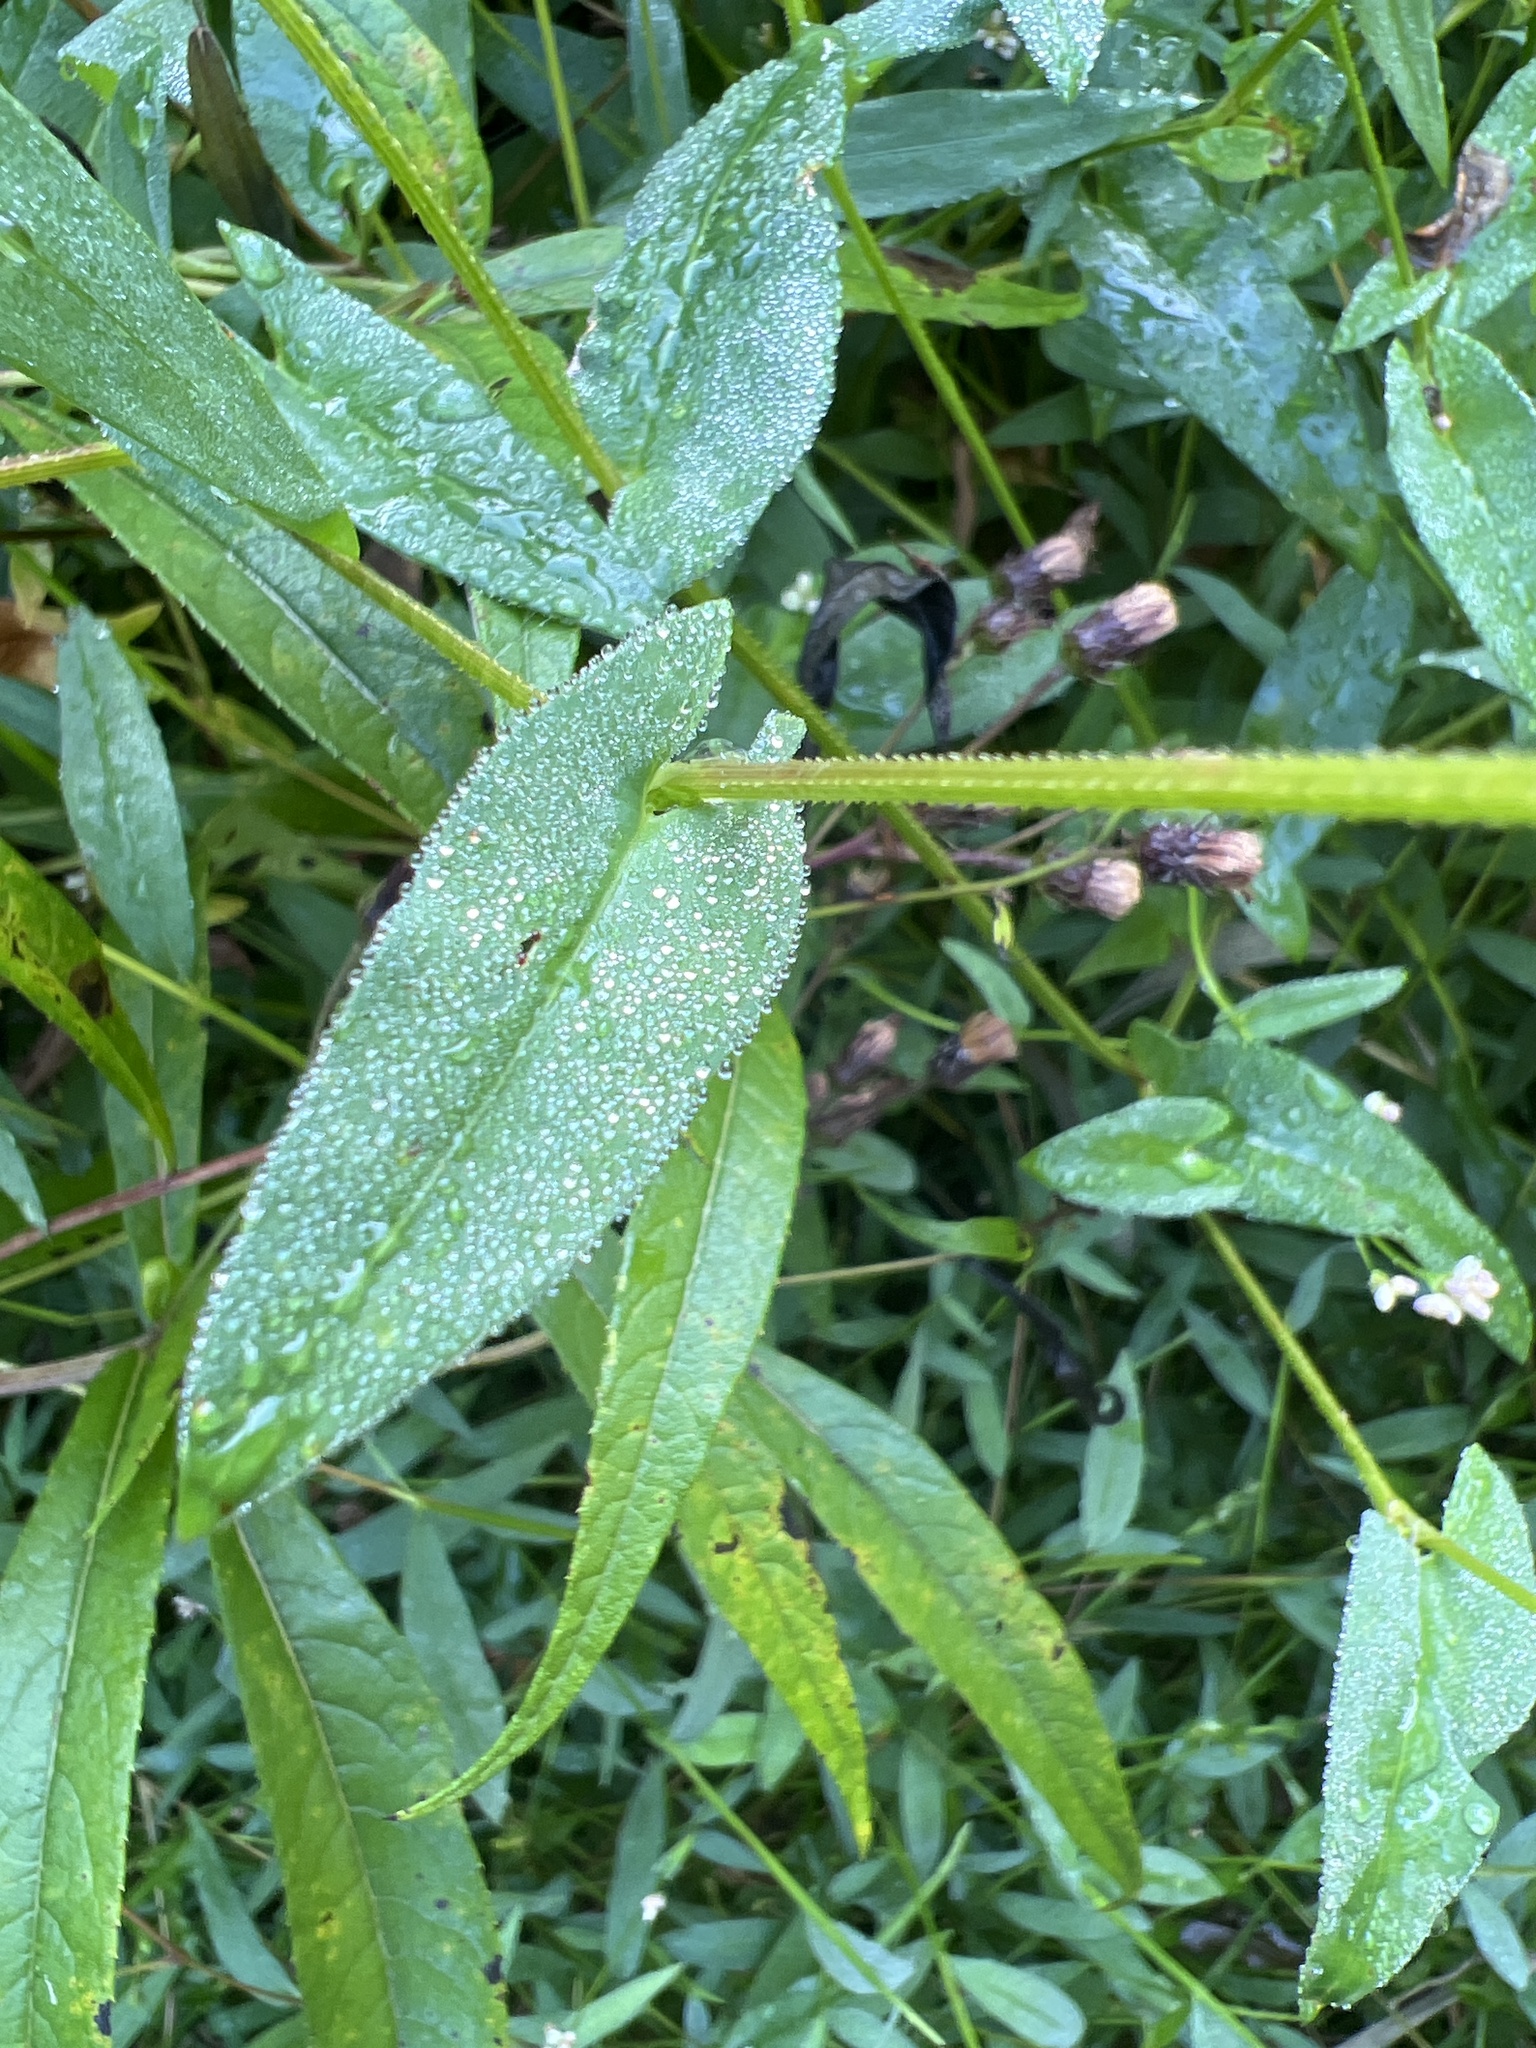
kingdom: Plantae
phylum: Tracheophyta
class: Magnoliopsida
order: Caryophyllales
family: Polygonaceae
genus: Persicaria
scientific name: Persicaria sagittata
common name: American tearthumb
